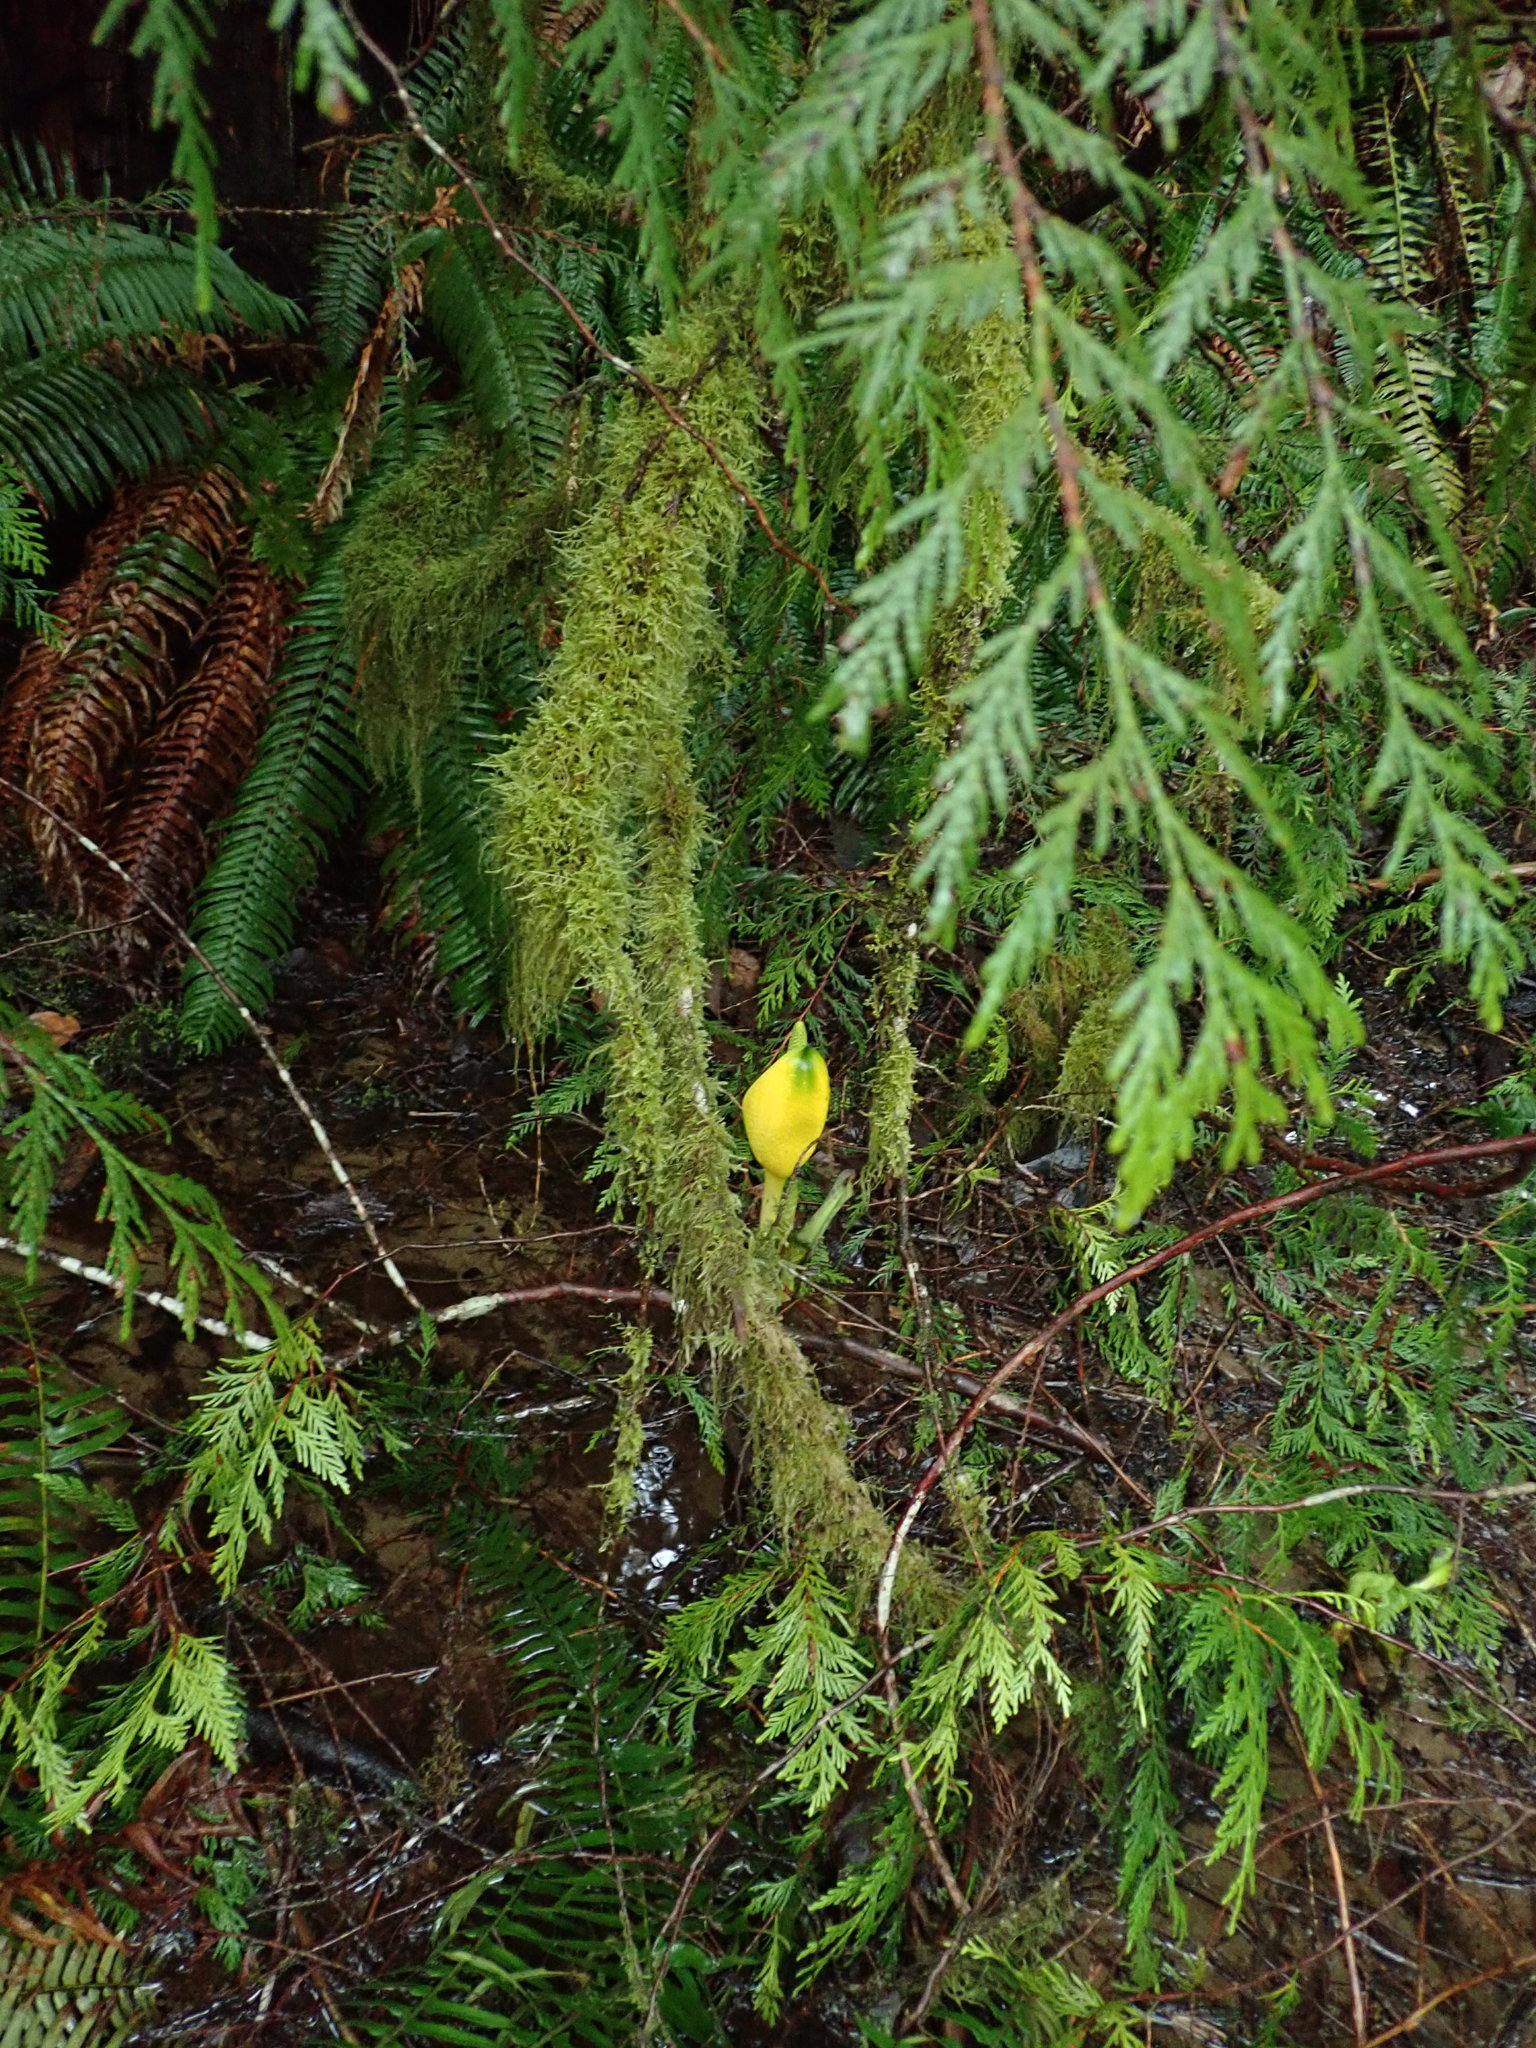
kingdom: Plantae
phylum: Tracheophyta
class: Liliopsida
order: Alismatales
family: Araceae
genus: Lysichiton
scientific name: Lysichiton americanus
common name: American skunk cabbage
